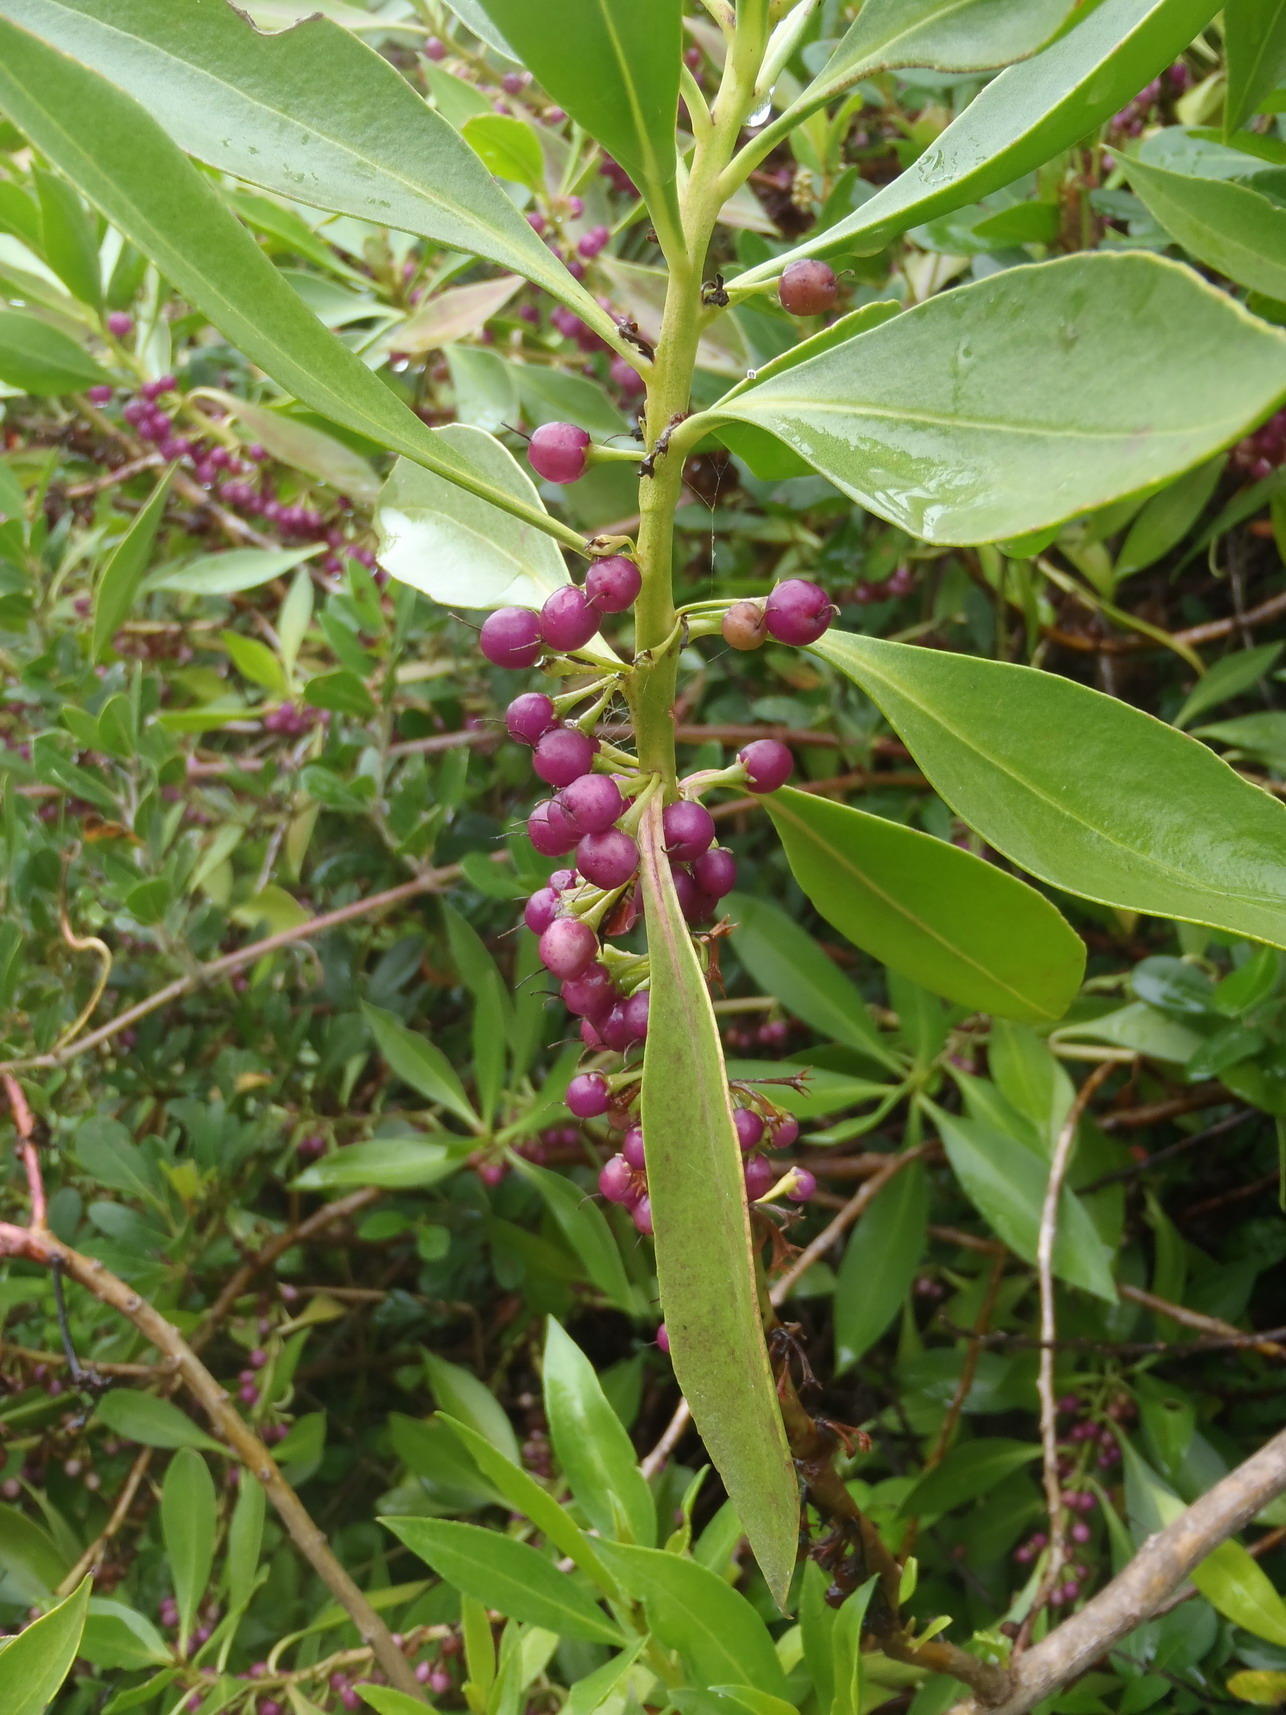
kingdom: Plantae
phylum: Tracheophyta
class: Magnoliopsida
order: Lamiales
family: Scrophulariaceae
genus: Myoporum
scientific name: Myoporum insulare
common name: Common boobialla
